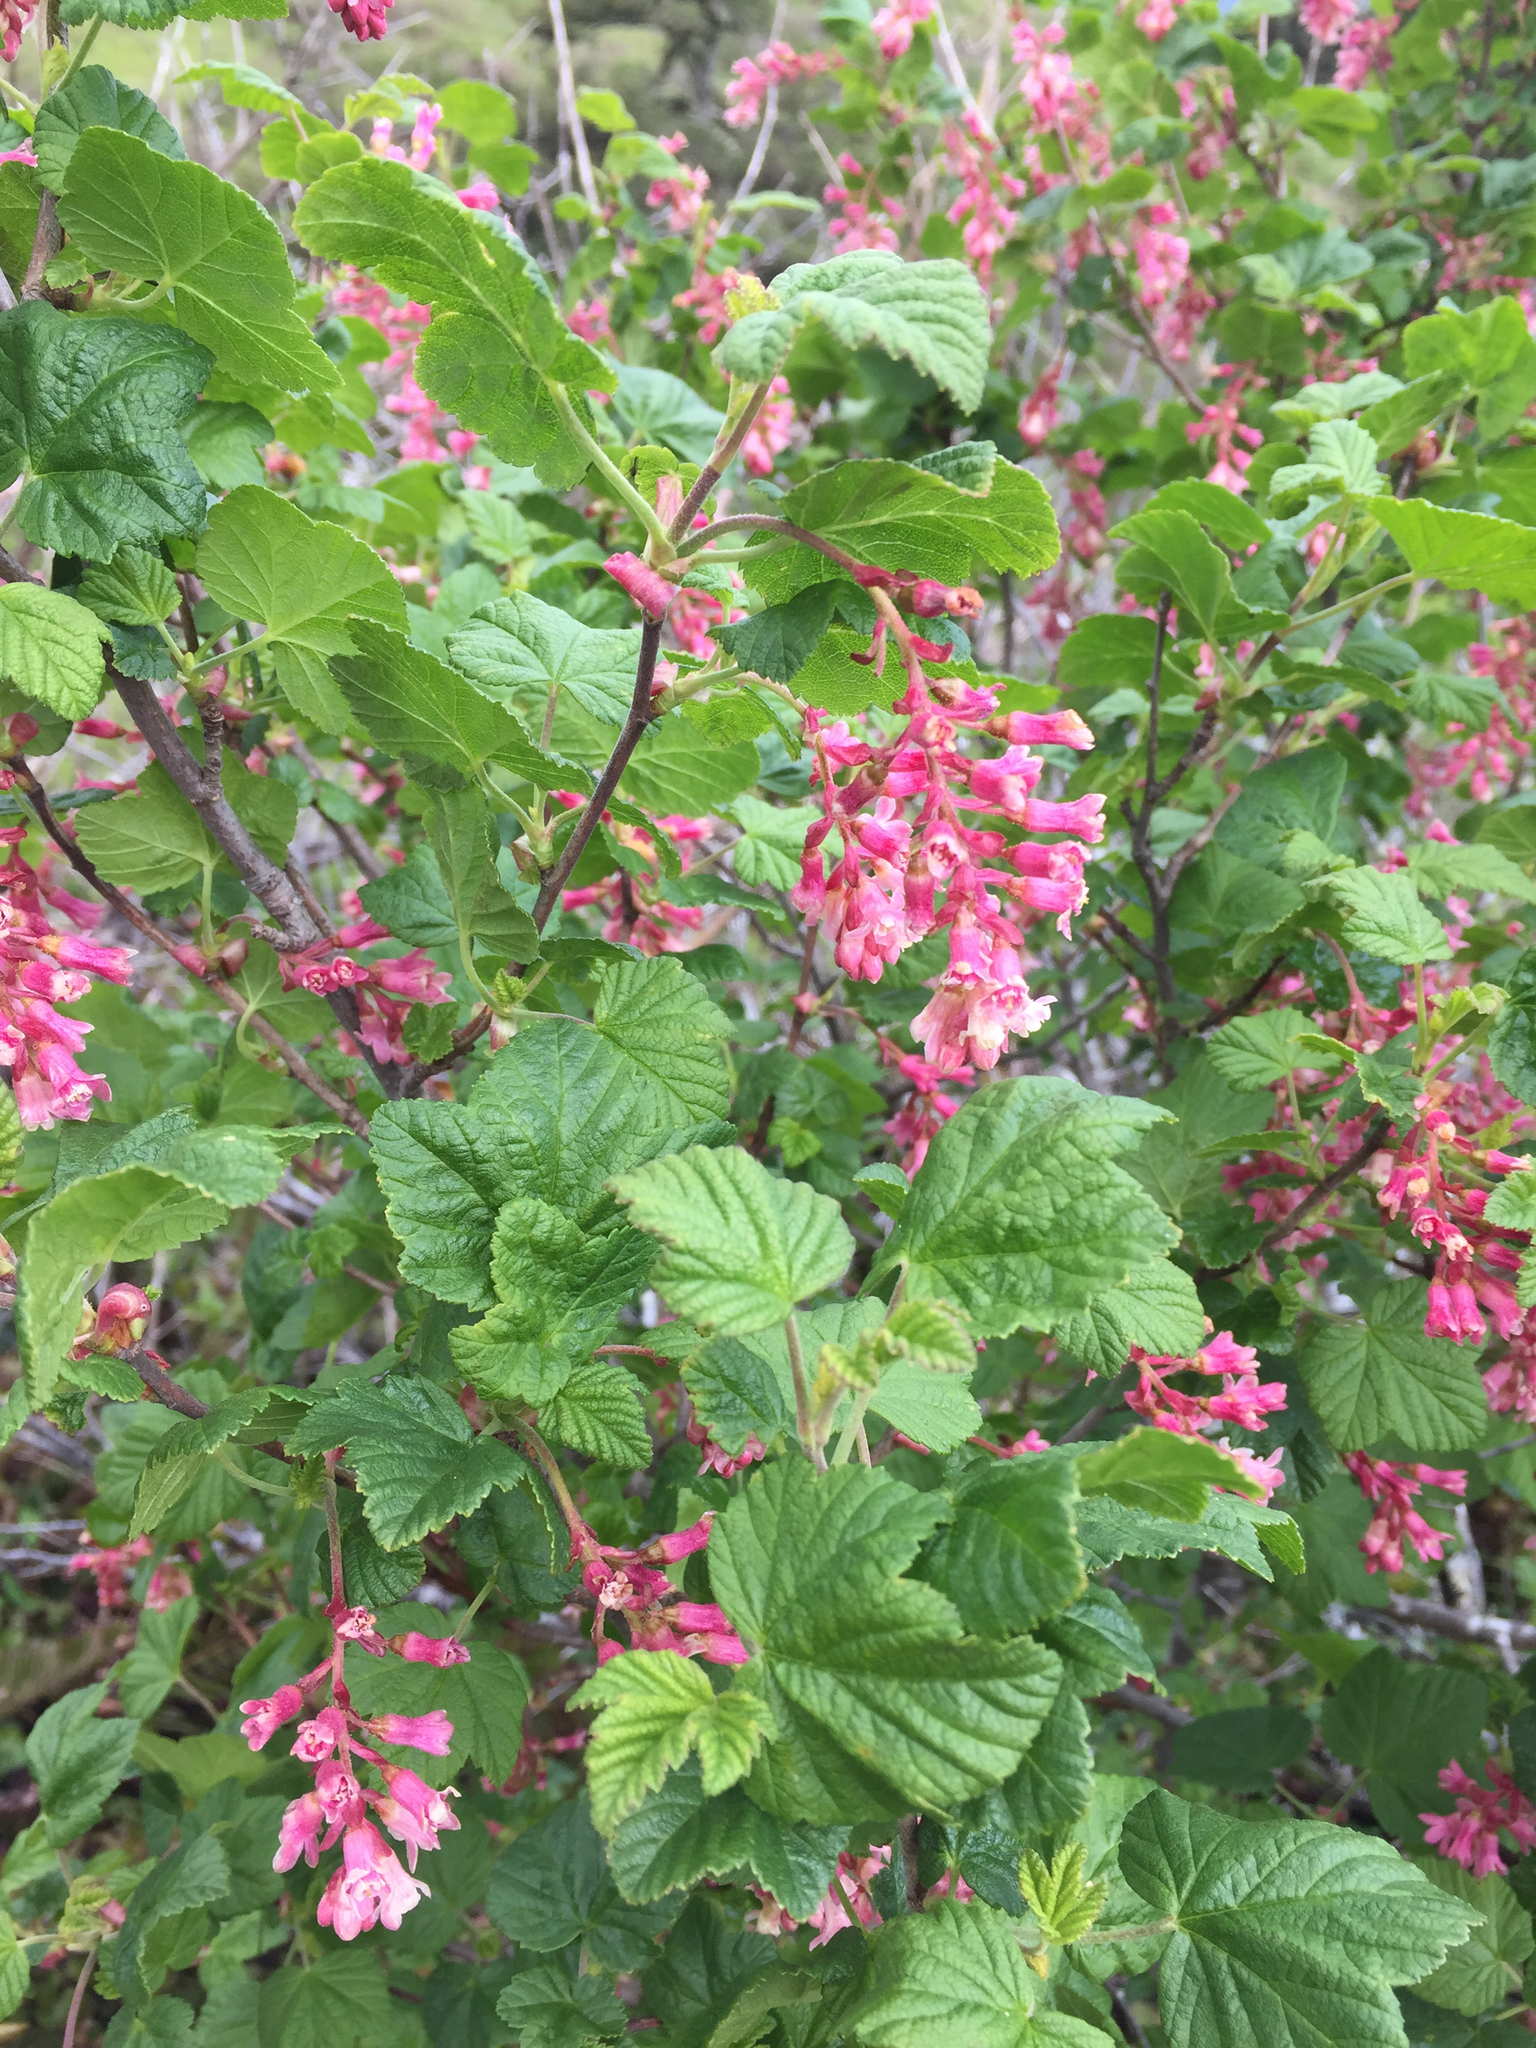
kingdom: Plantae
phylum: Tracheophyta
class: Magnoliopsida
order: Saxifragales
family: Grossulariaceae
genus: Ribes
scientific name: Ribes sanguineum
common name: Flowering currant
